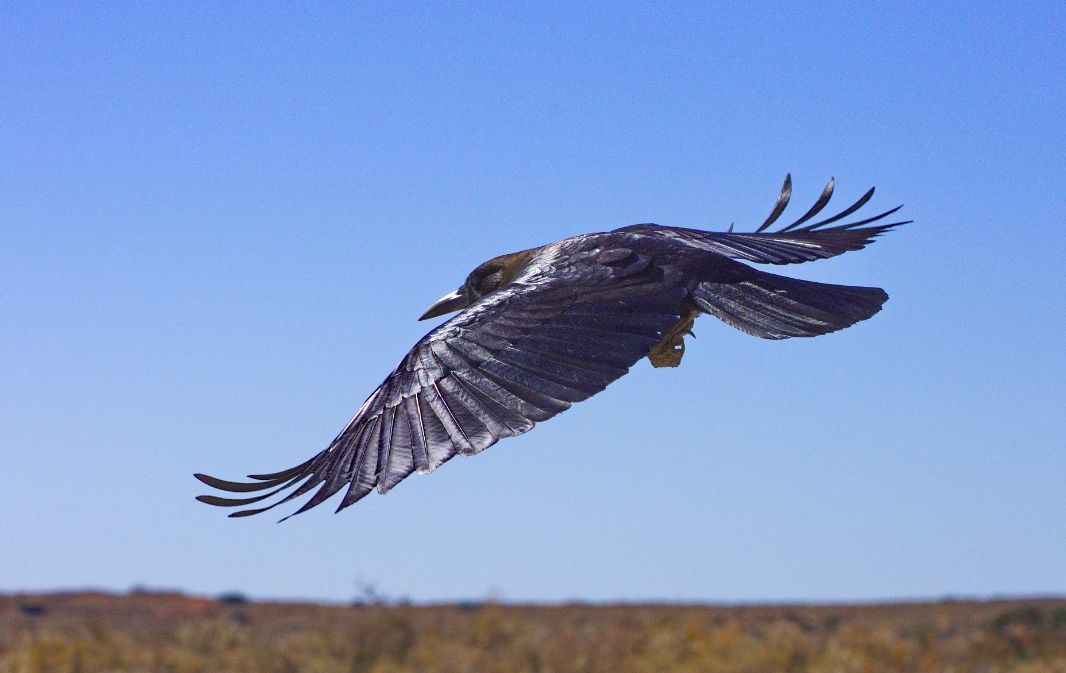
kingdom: Animalia
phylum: Chordata
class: Aves
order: Passeriformes
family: Corvidae
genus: Corvus
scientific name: Corvus capensis
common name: Cape crow
